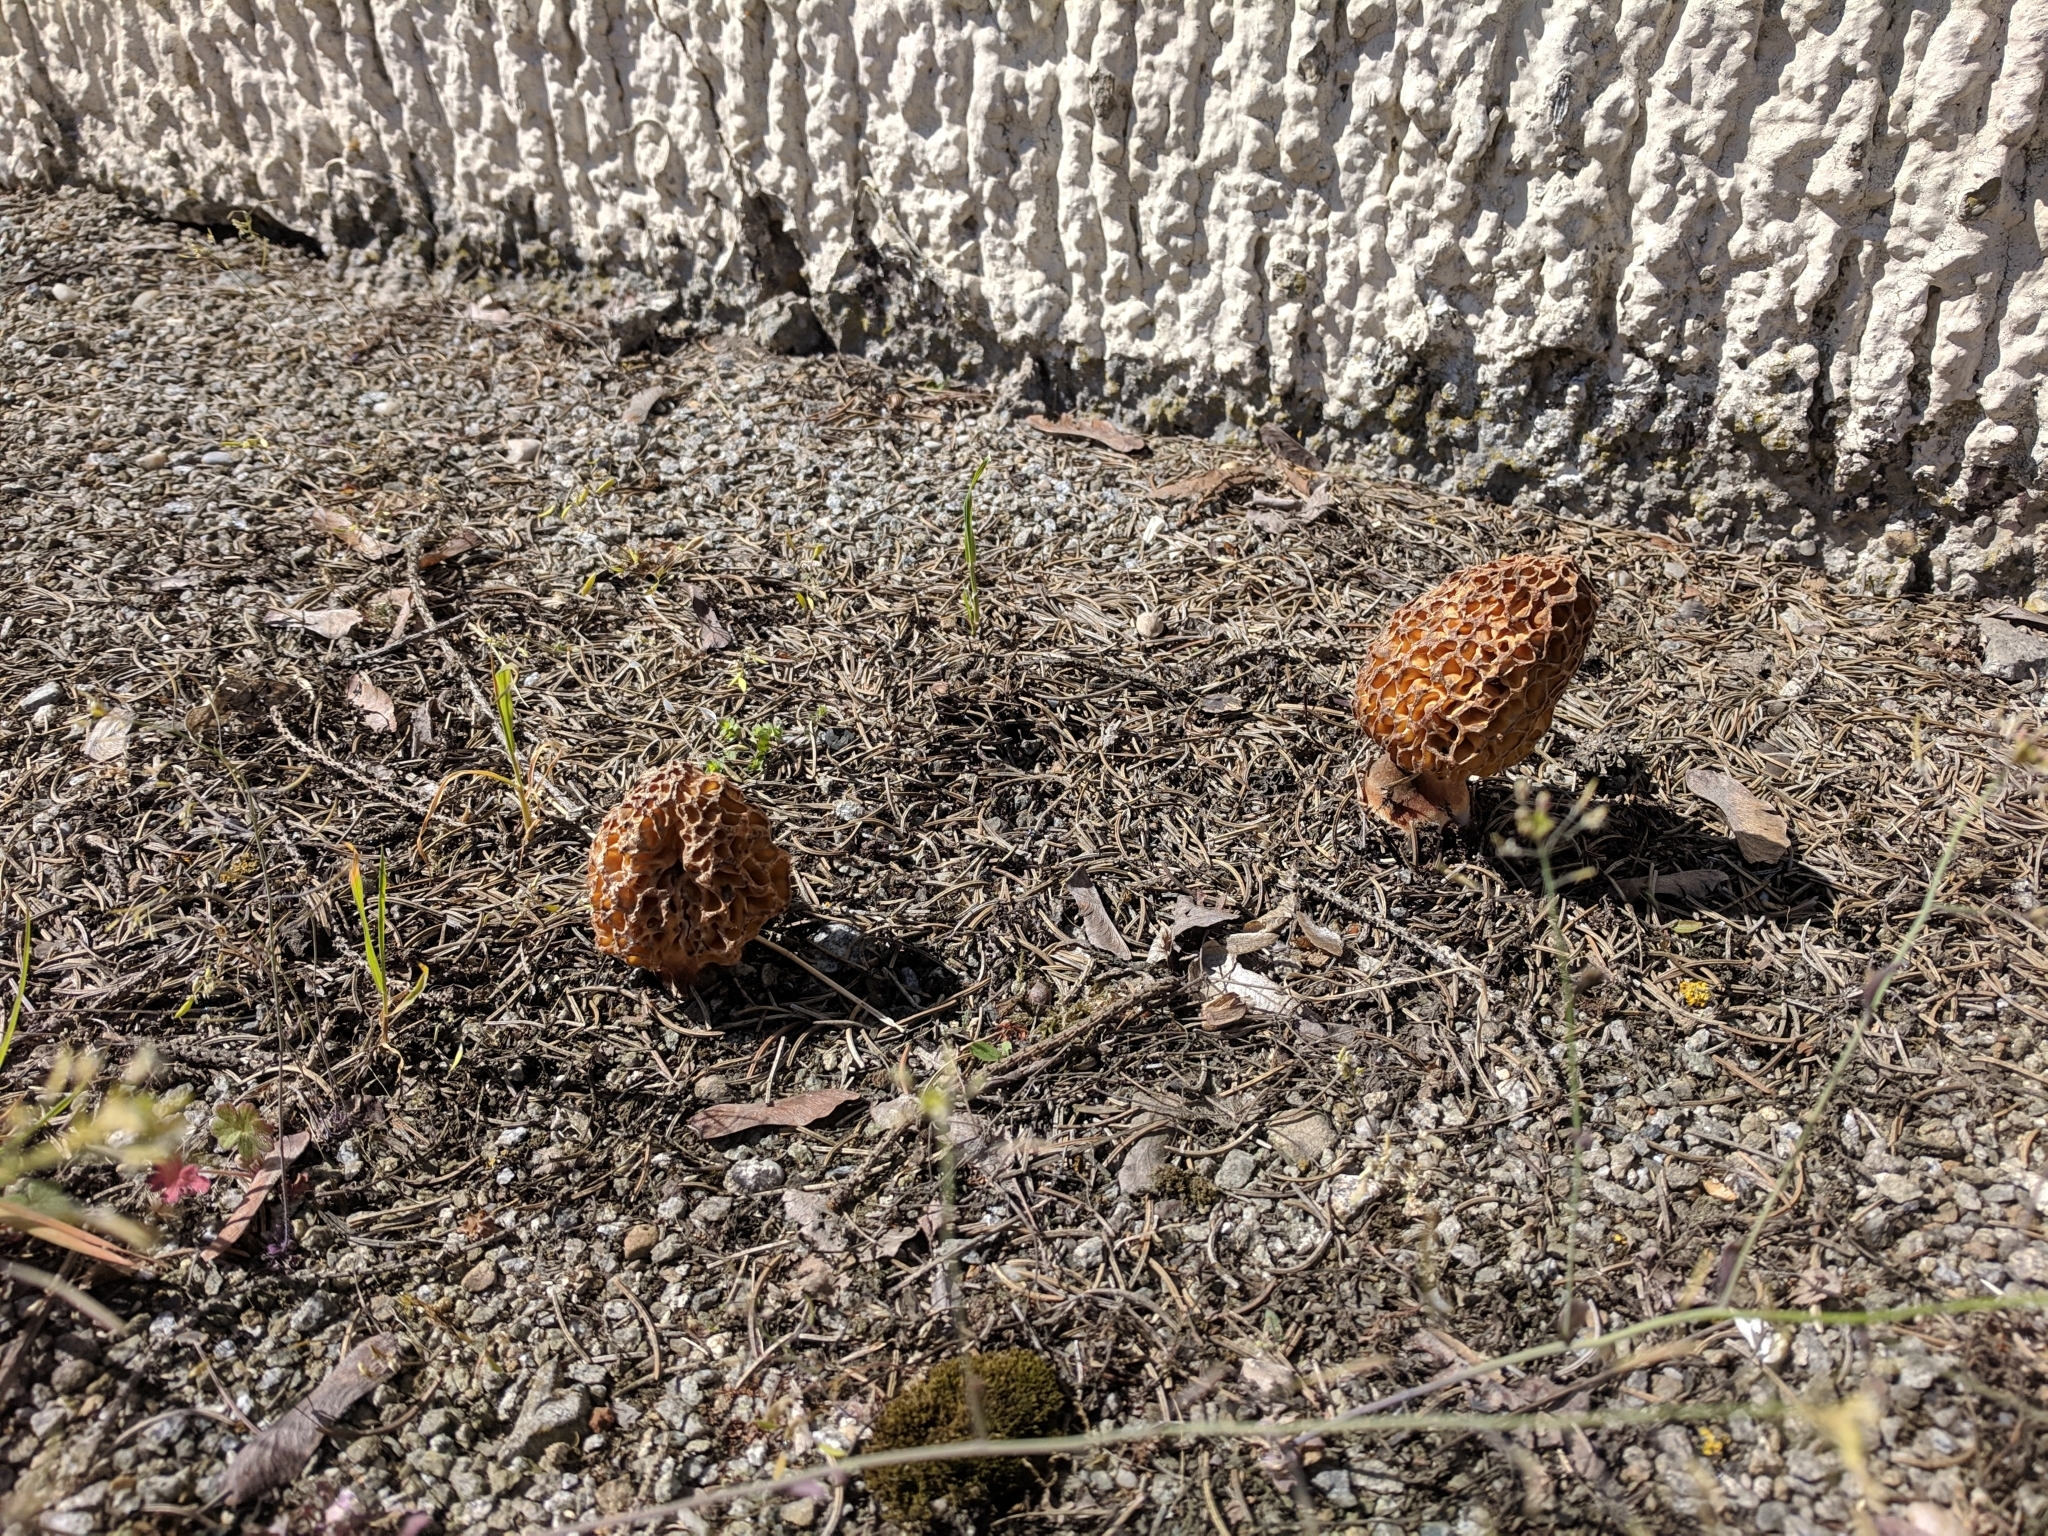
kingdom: Fungi
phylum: Ascomycota
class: Pezizomycetes
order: Pezizales
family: Morchellaceae
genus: Morchella
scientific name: Morchella
